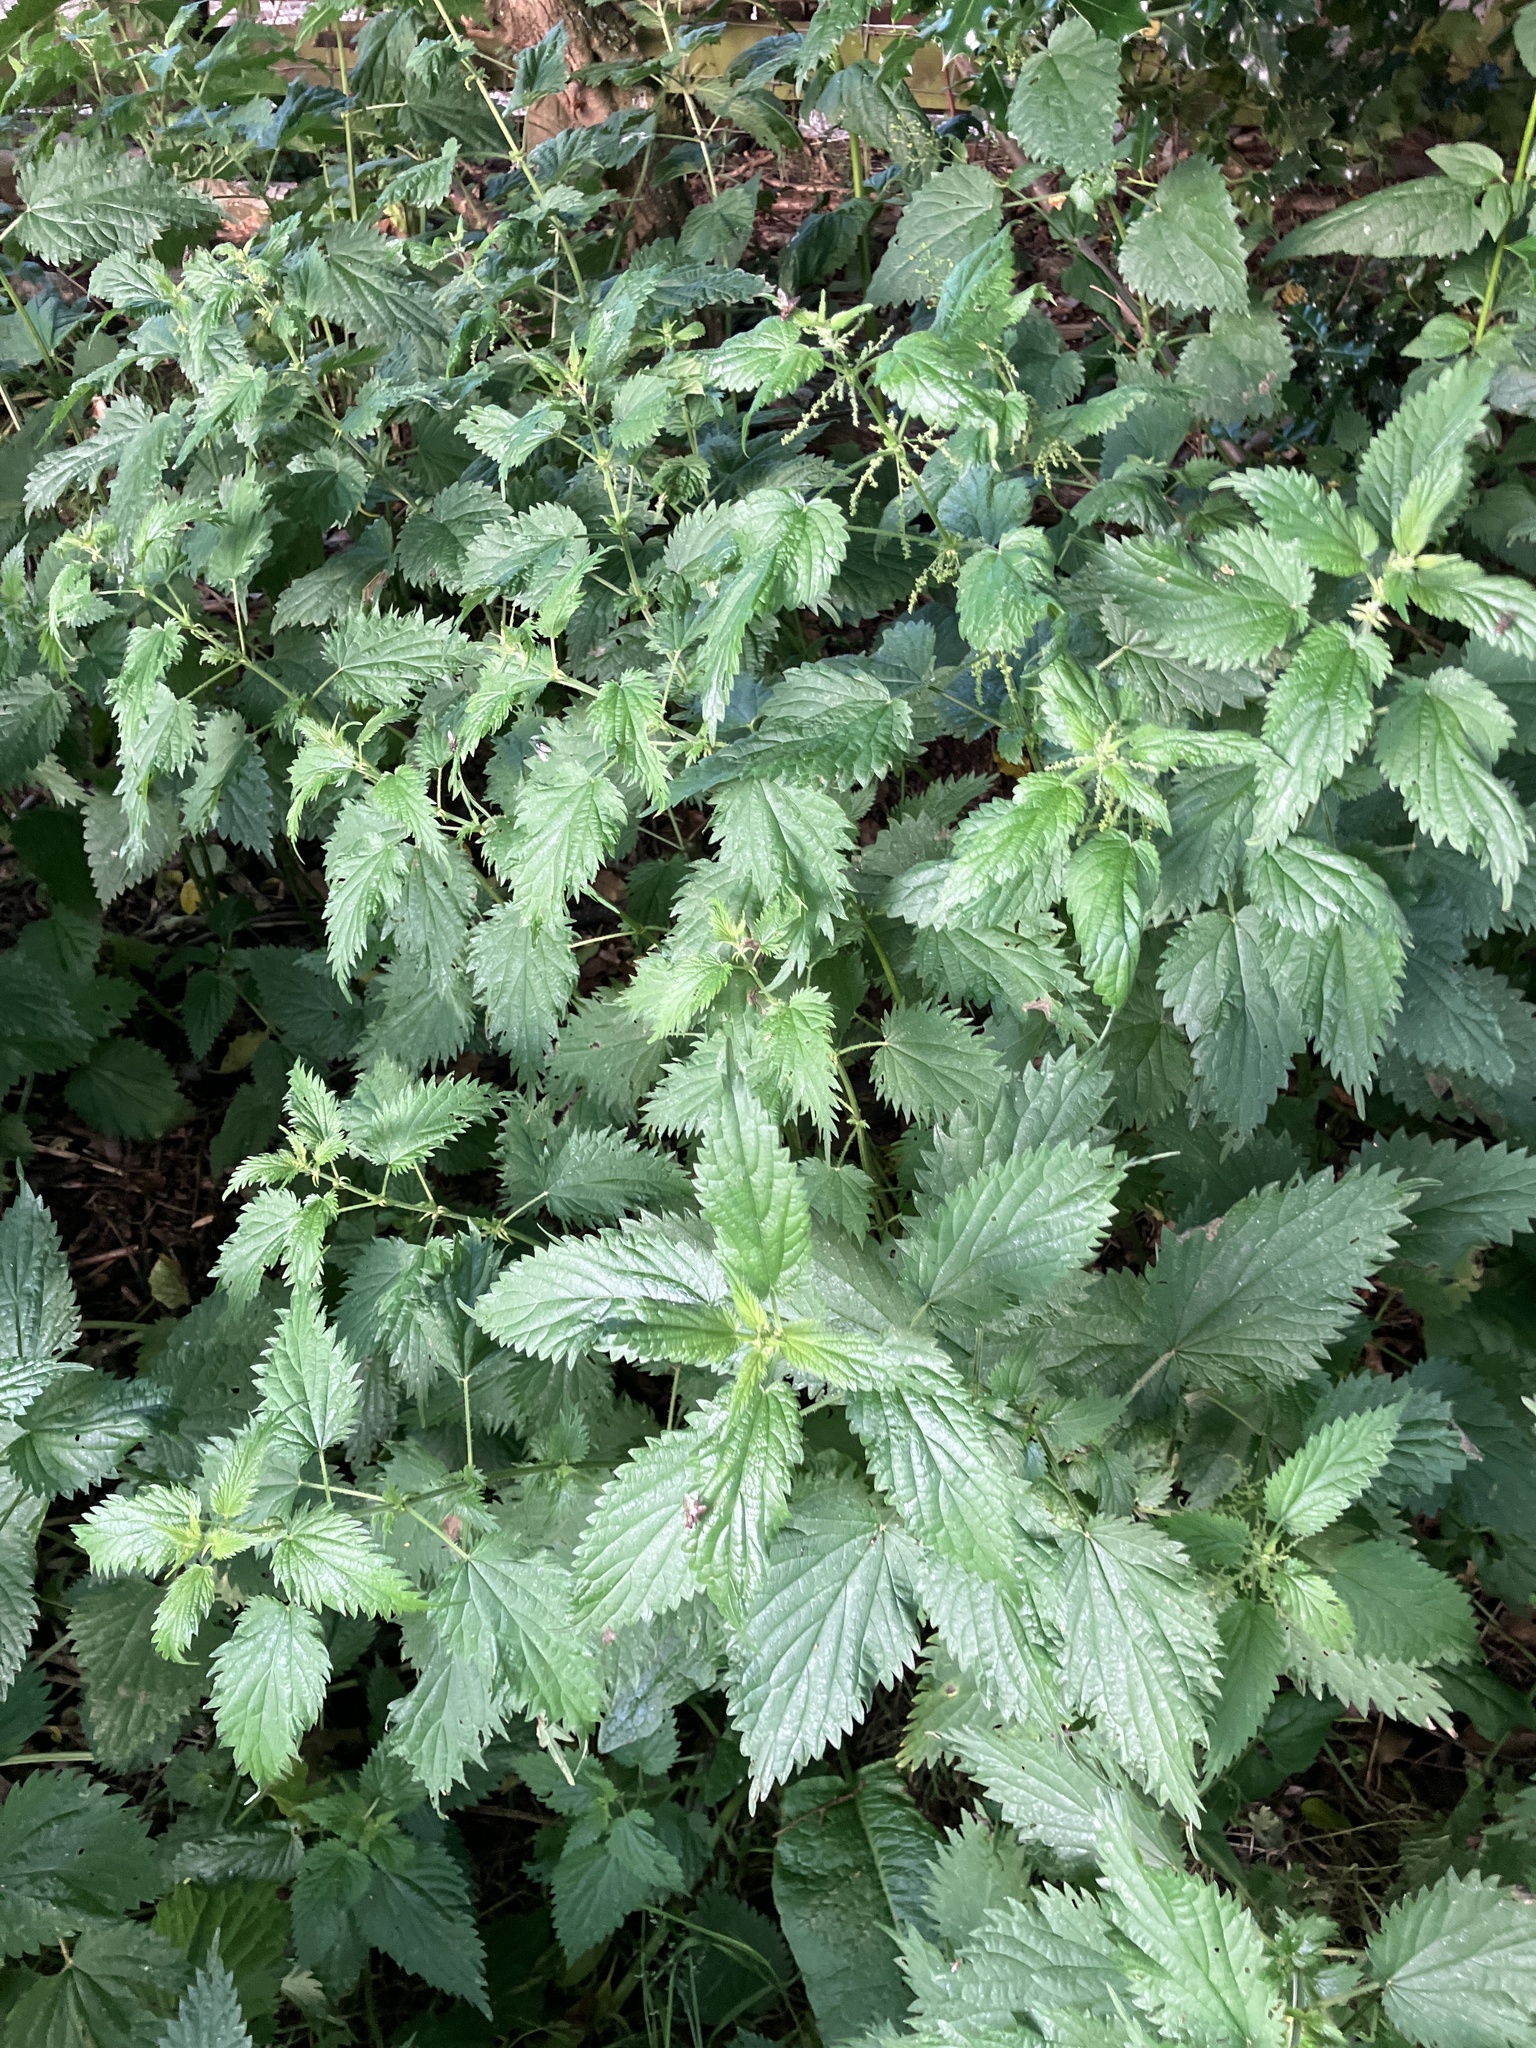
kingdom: Plantae
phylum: Tracheophyta
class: Magnoliopsida
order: Rosales
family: Urticaceae
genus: Urtica
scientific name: Urtica dioica
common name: Common nettle
